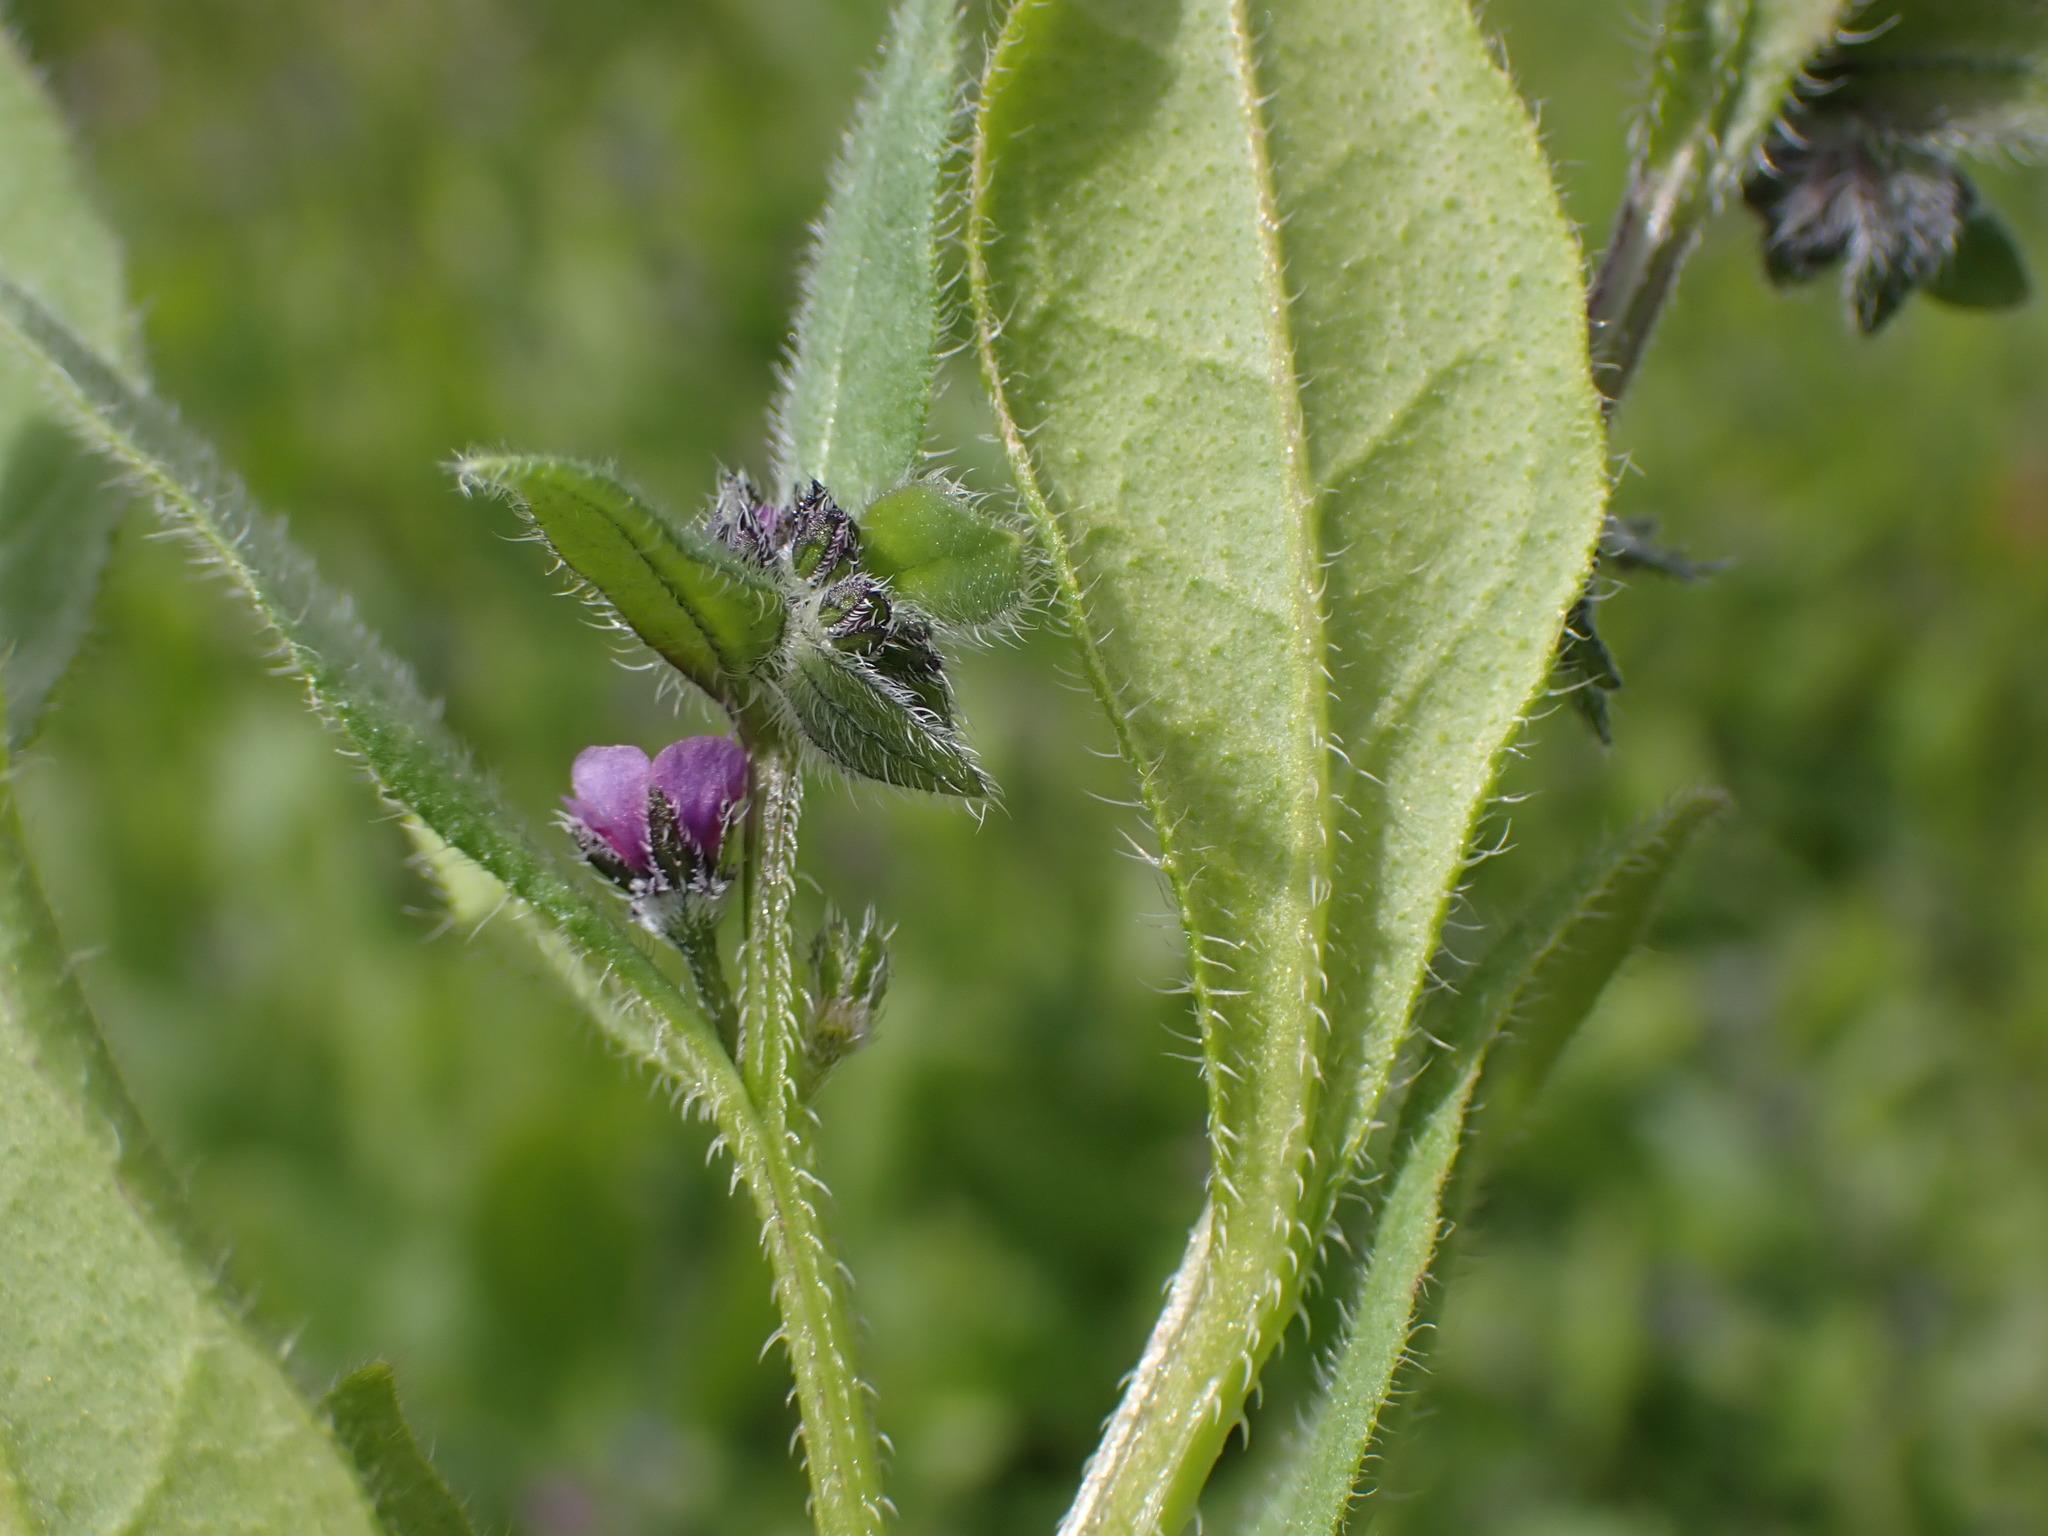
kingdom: Plantae
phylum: Tracheophyta
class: Magnoliopsida
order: Boraginales
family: Boraginaceae
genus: Asperugo
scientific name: Asperugo procumbens
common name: Madwort
